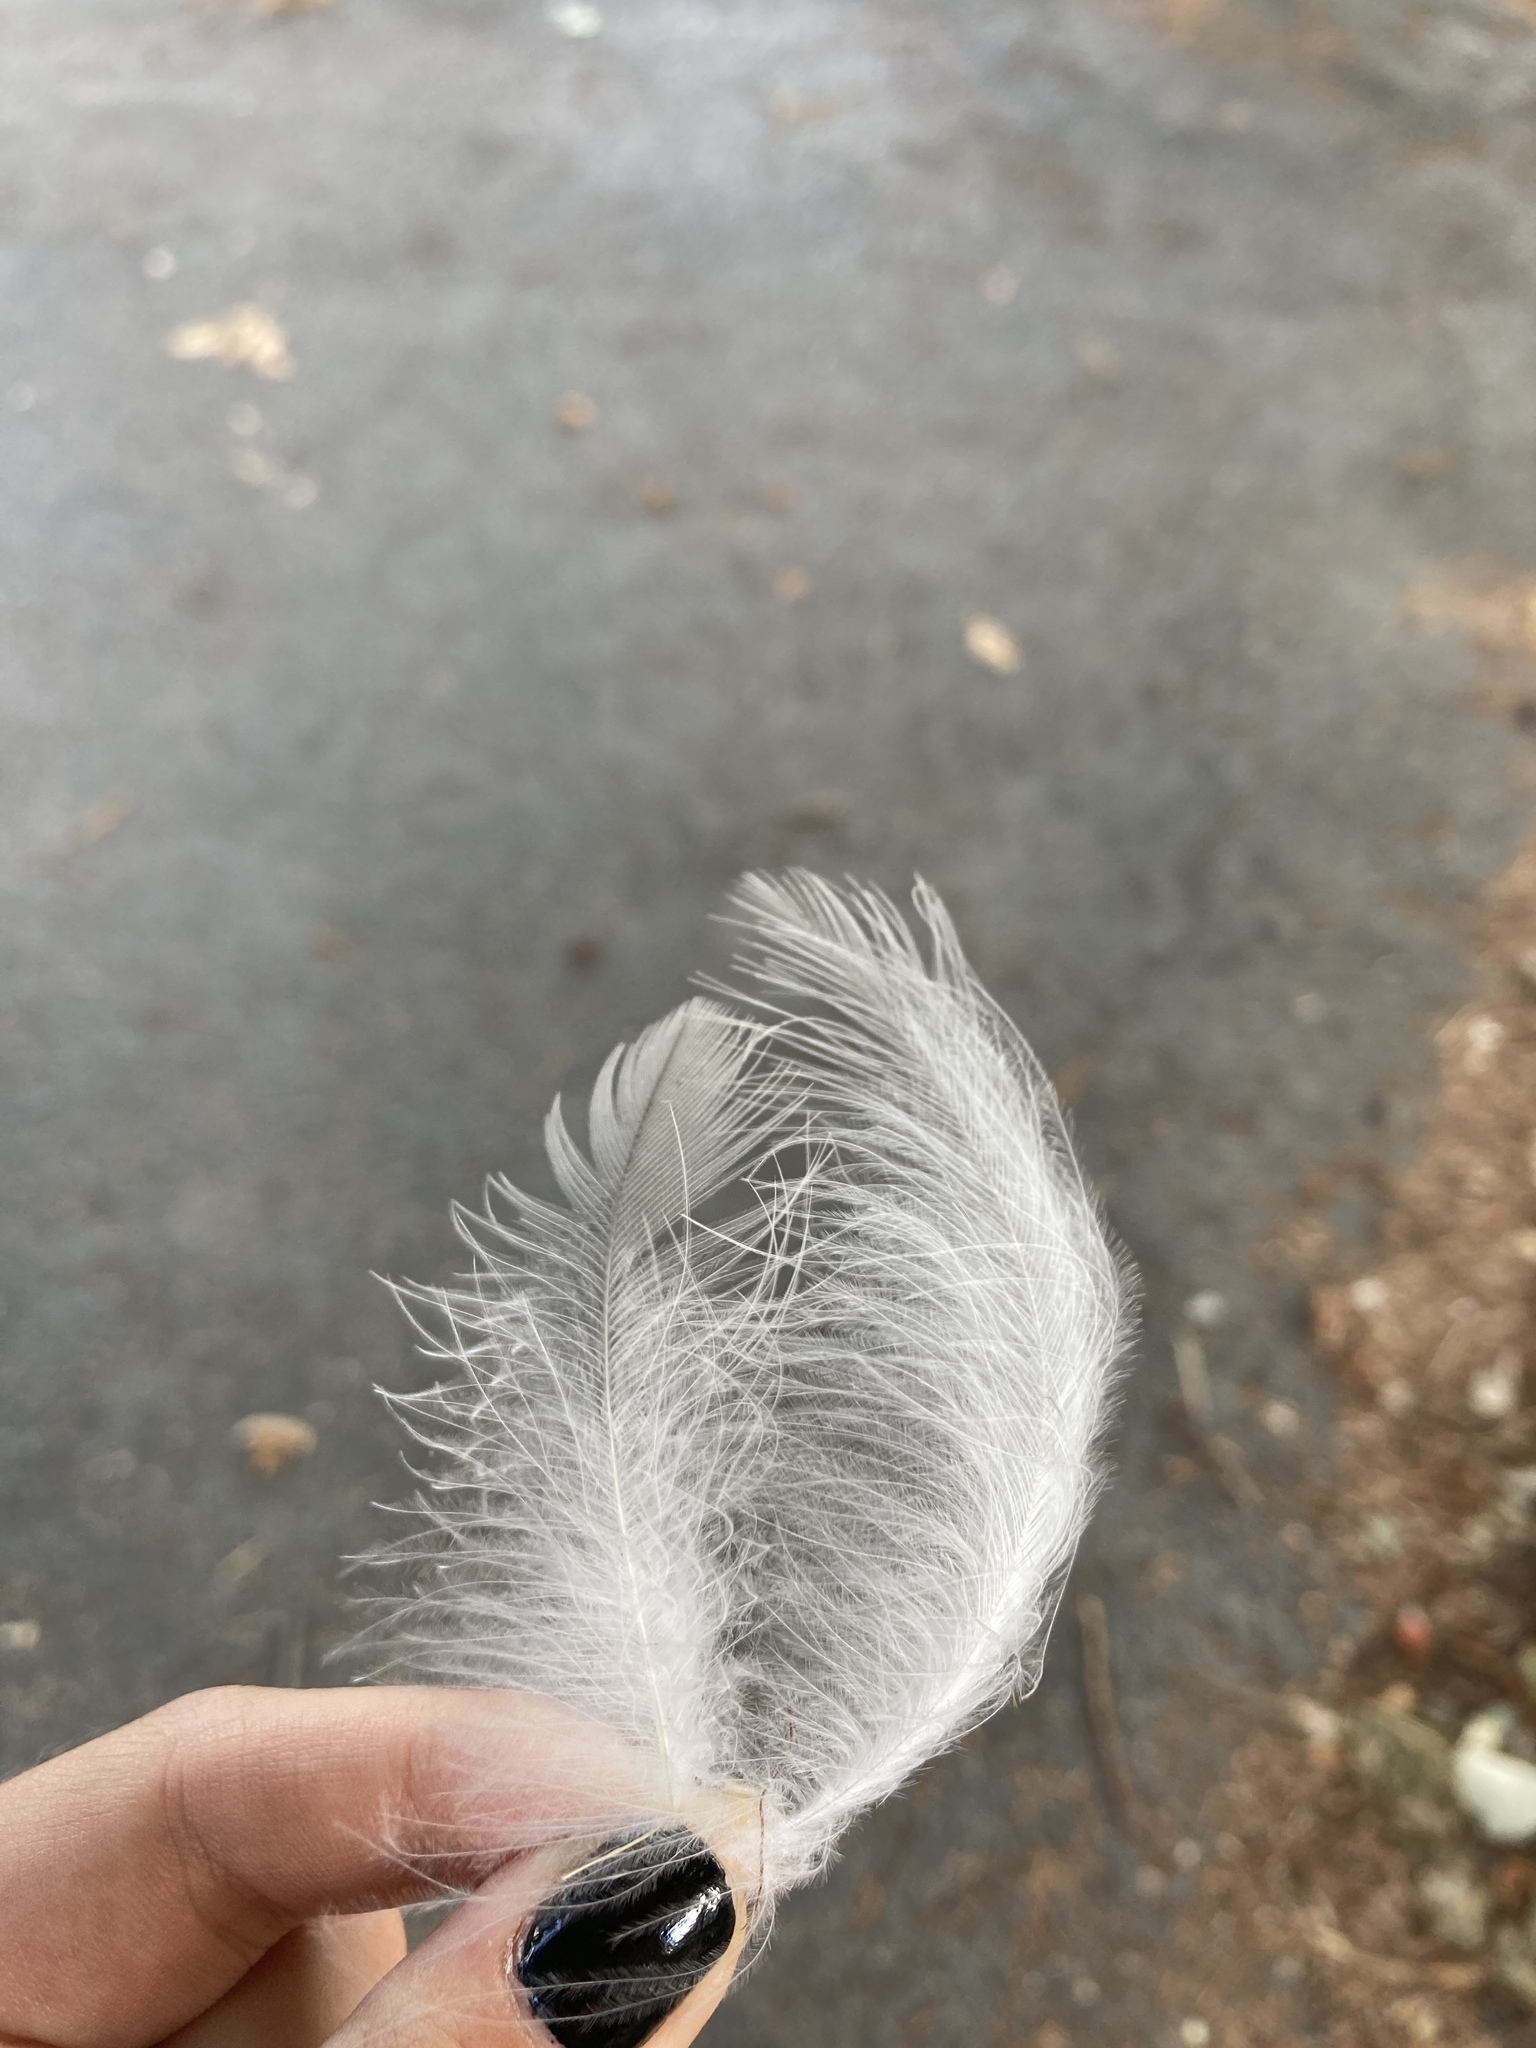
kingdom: Animalia
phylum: Chordata
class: Aves
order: Passeriformes
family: Corvidae
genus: Corvus
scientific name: Corvus cornix
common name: Hooded crow
